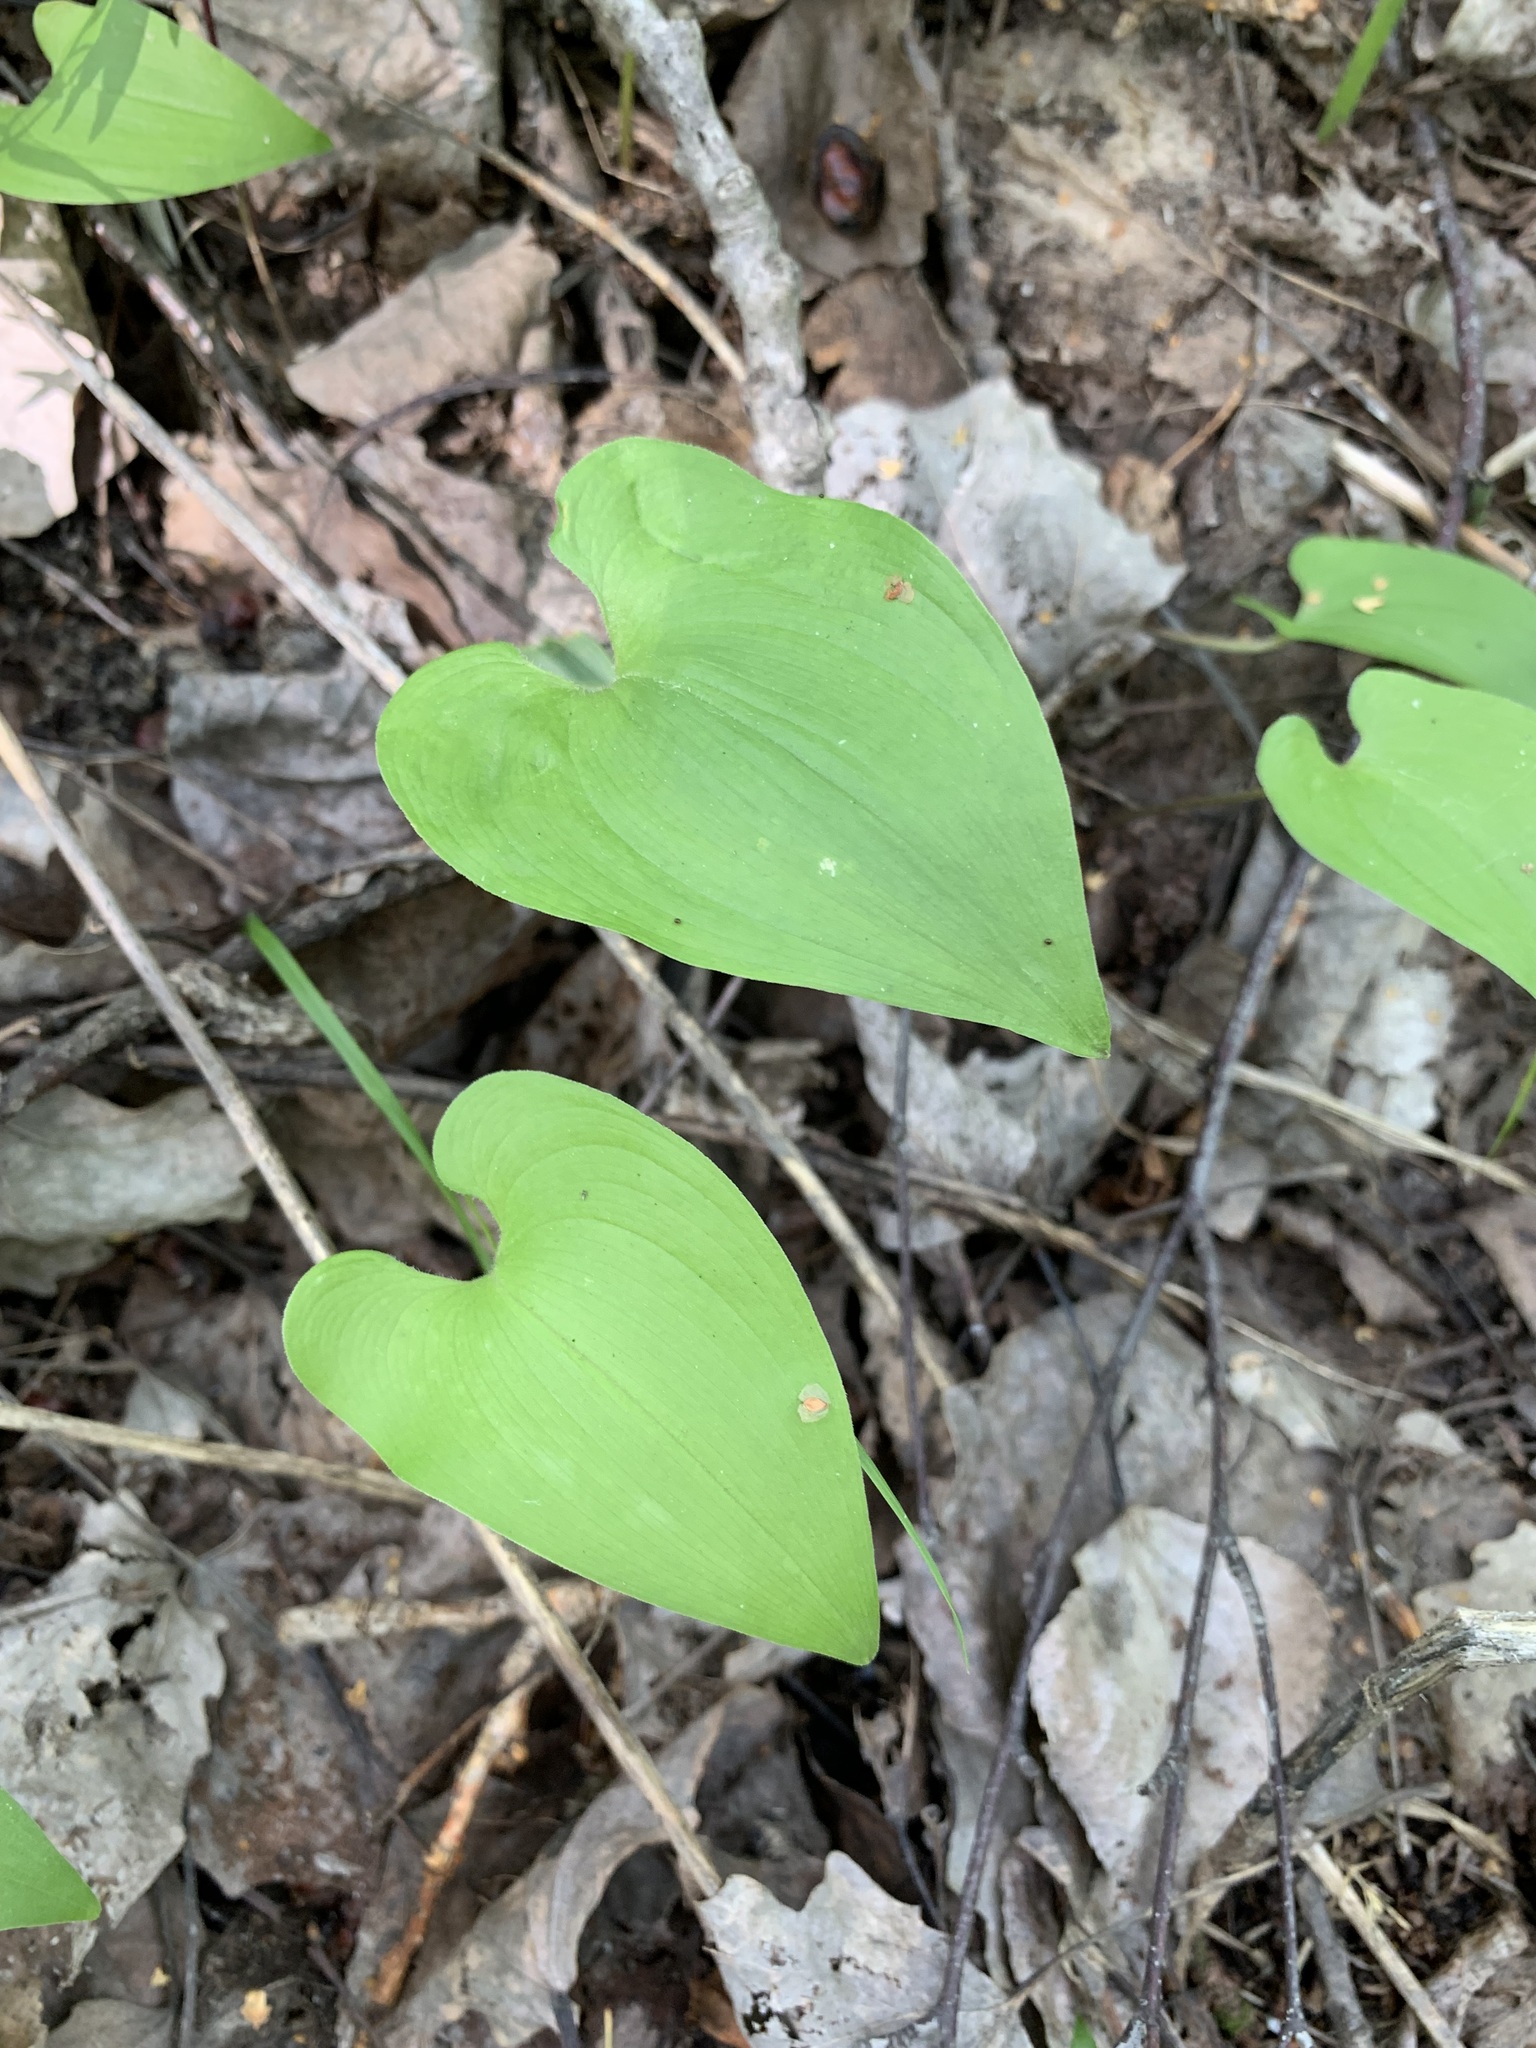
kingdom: Plantae
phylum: Tracheophyta
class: Liliopsida
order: Asparagales
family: Asparagaceae
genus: Maianthemum
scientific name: Maianthemum bifolium
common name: May lily
